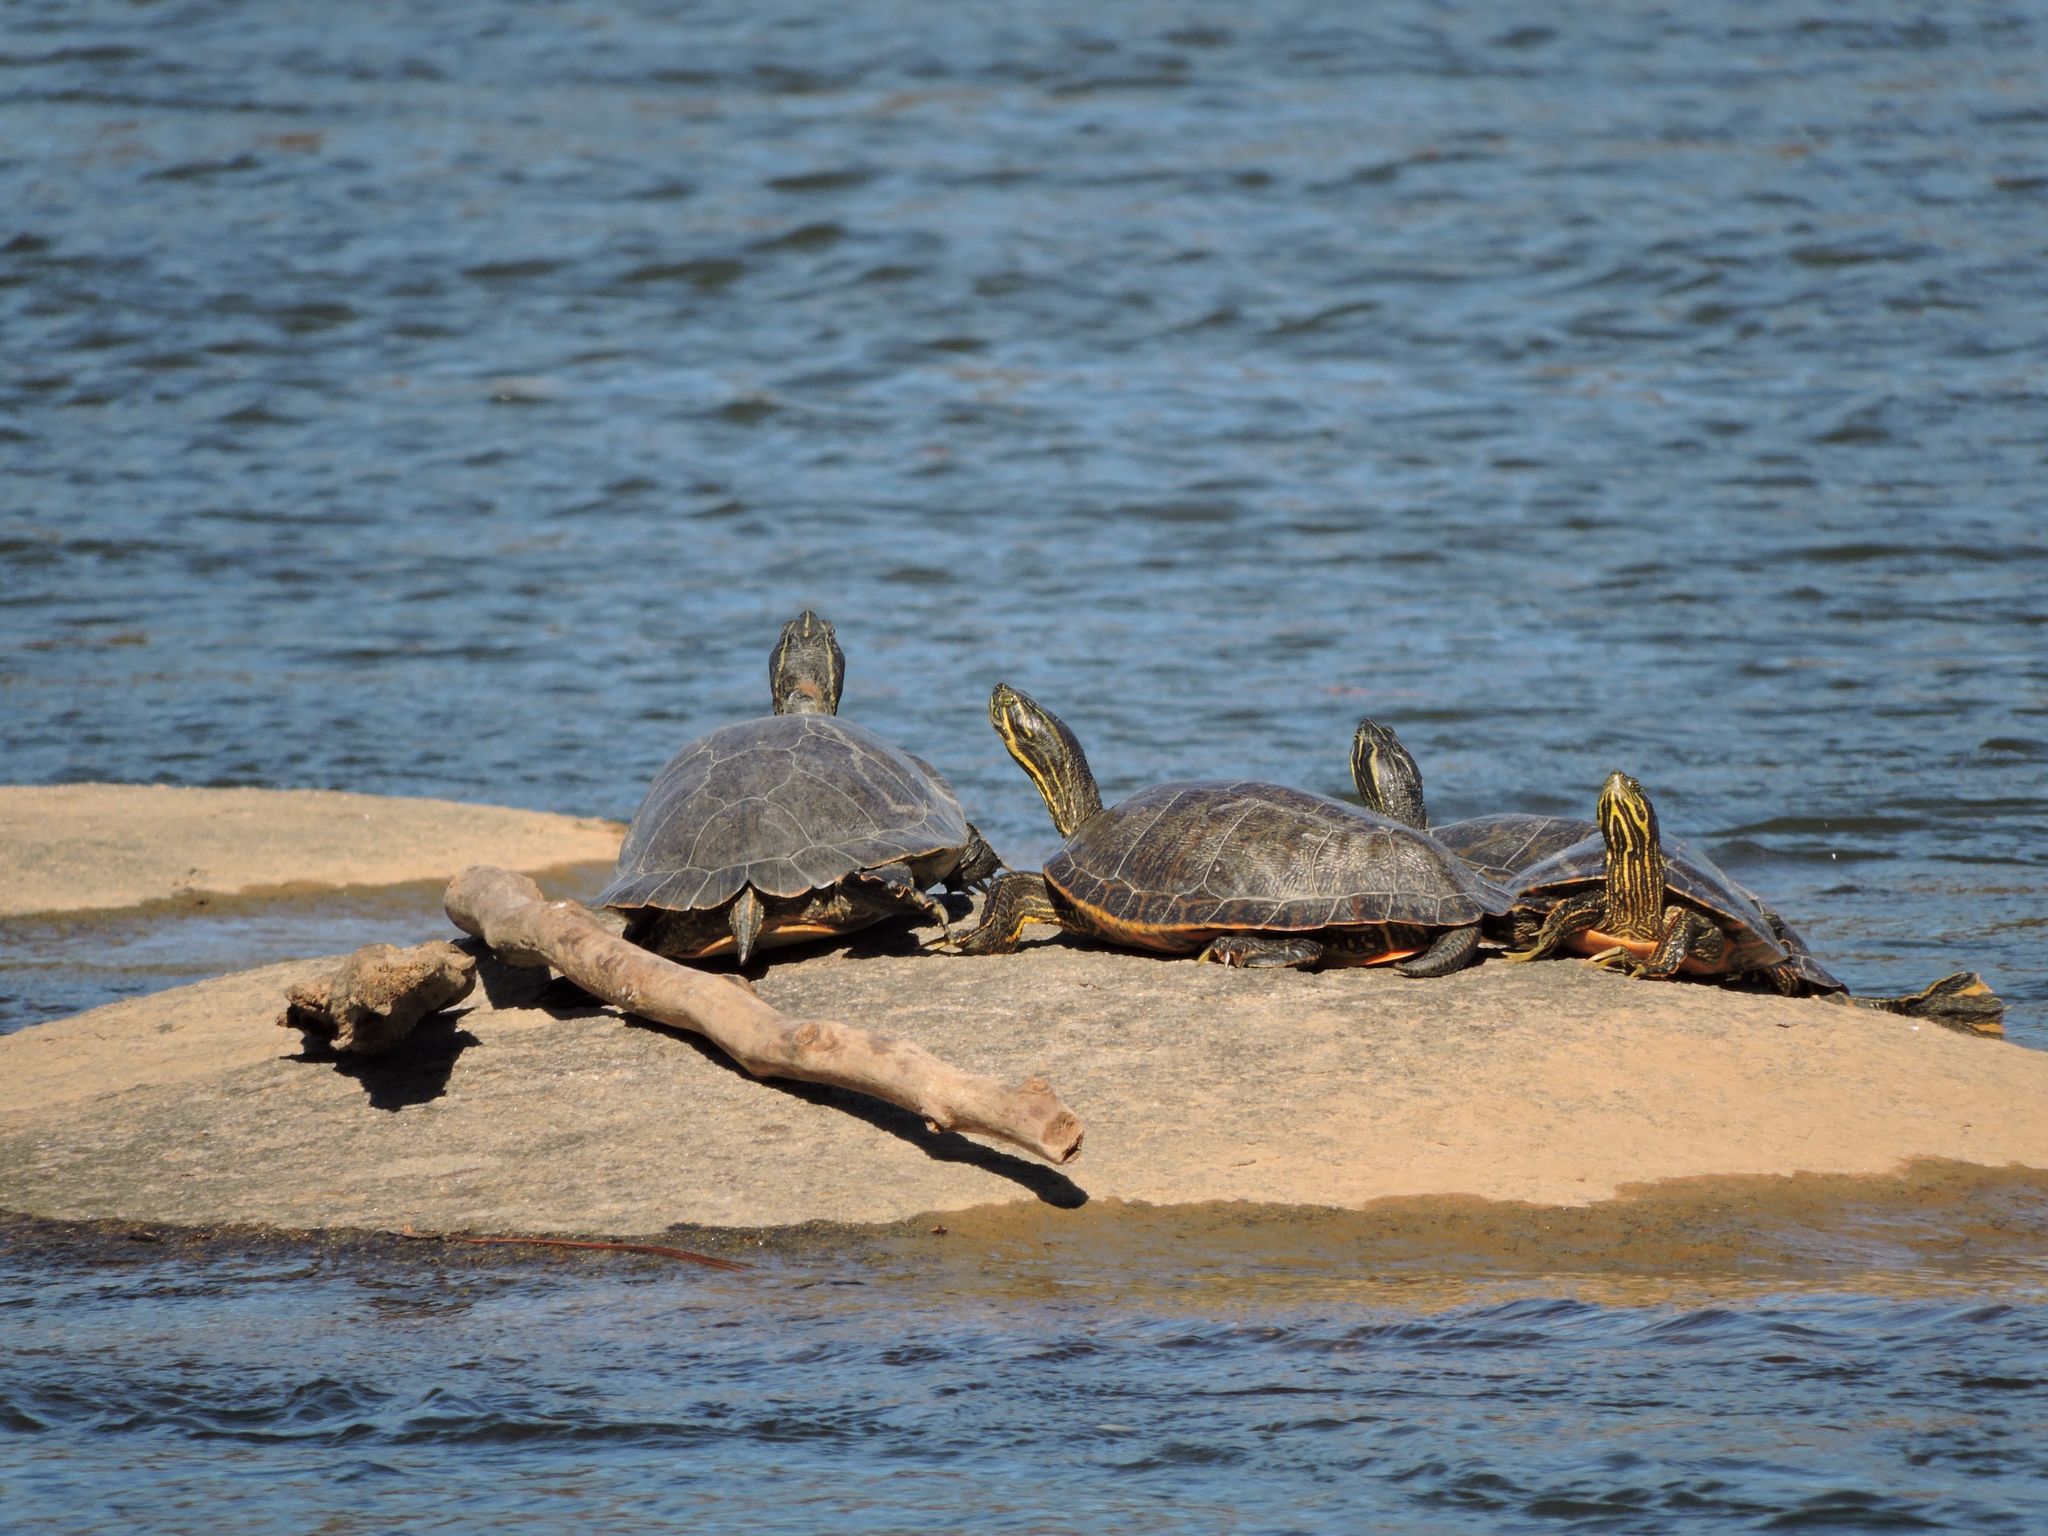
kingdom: Animalia
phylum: Chordata
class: Testudines
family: Emydidae
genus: Pseudemys
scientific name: Pseudemys concinna
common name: Eastern river cooter
